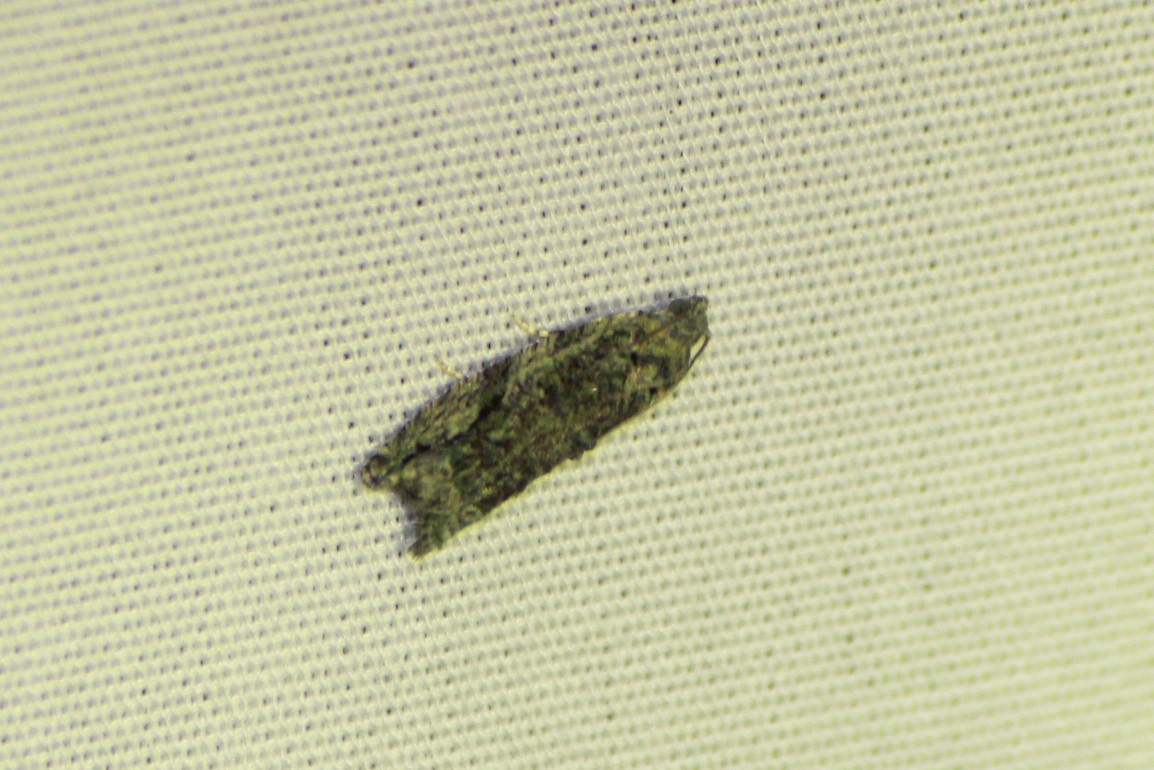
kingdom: Animalia
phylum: Arthropoda
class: Insecta
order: Lepidoptera
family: Tortricidae
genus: Proteoteras
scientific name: Proteoteras aesculana
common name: Maple twig borer moth
